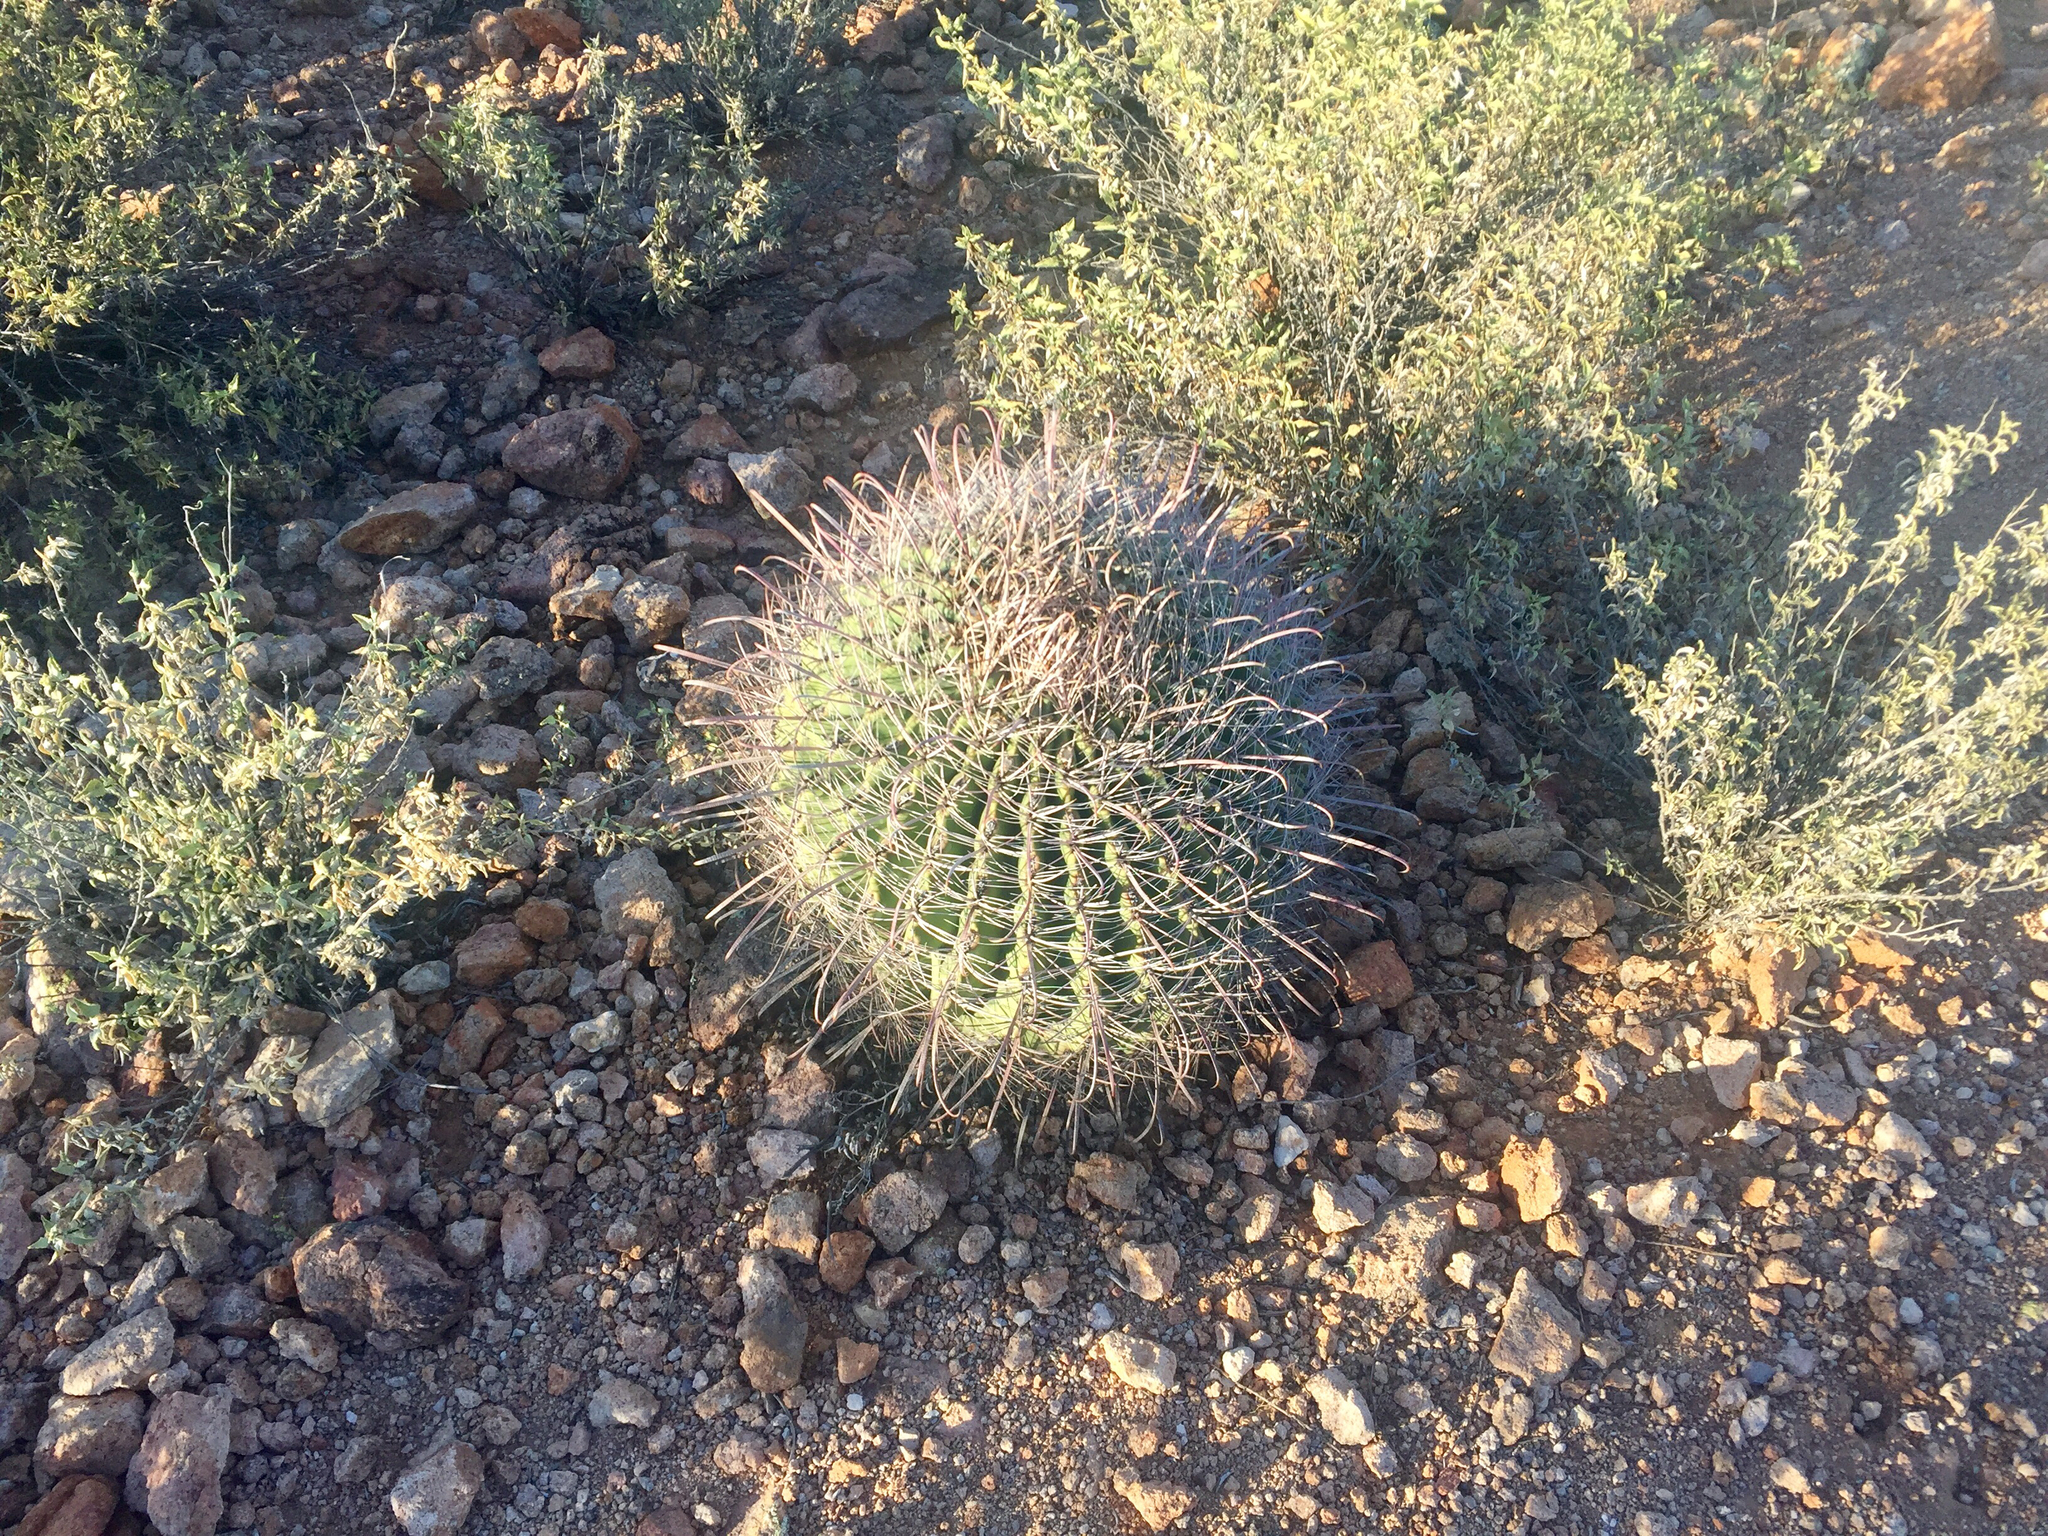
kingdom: Plantae
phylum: Tracheophyta
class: Magnoliopsida
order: Caryophyllales
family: Cactaceae
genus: Ferocactus
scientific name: Ferocactus wislizeni
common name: Candy barrel cactus
